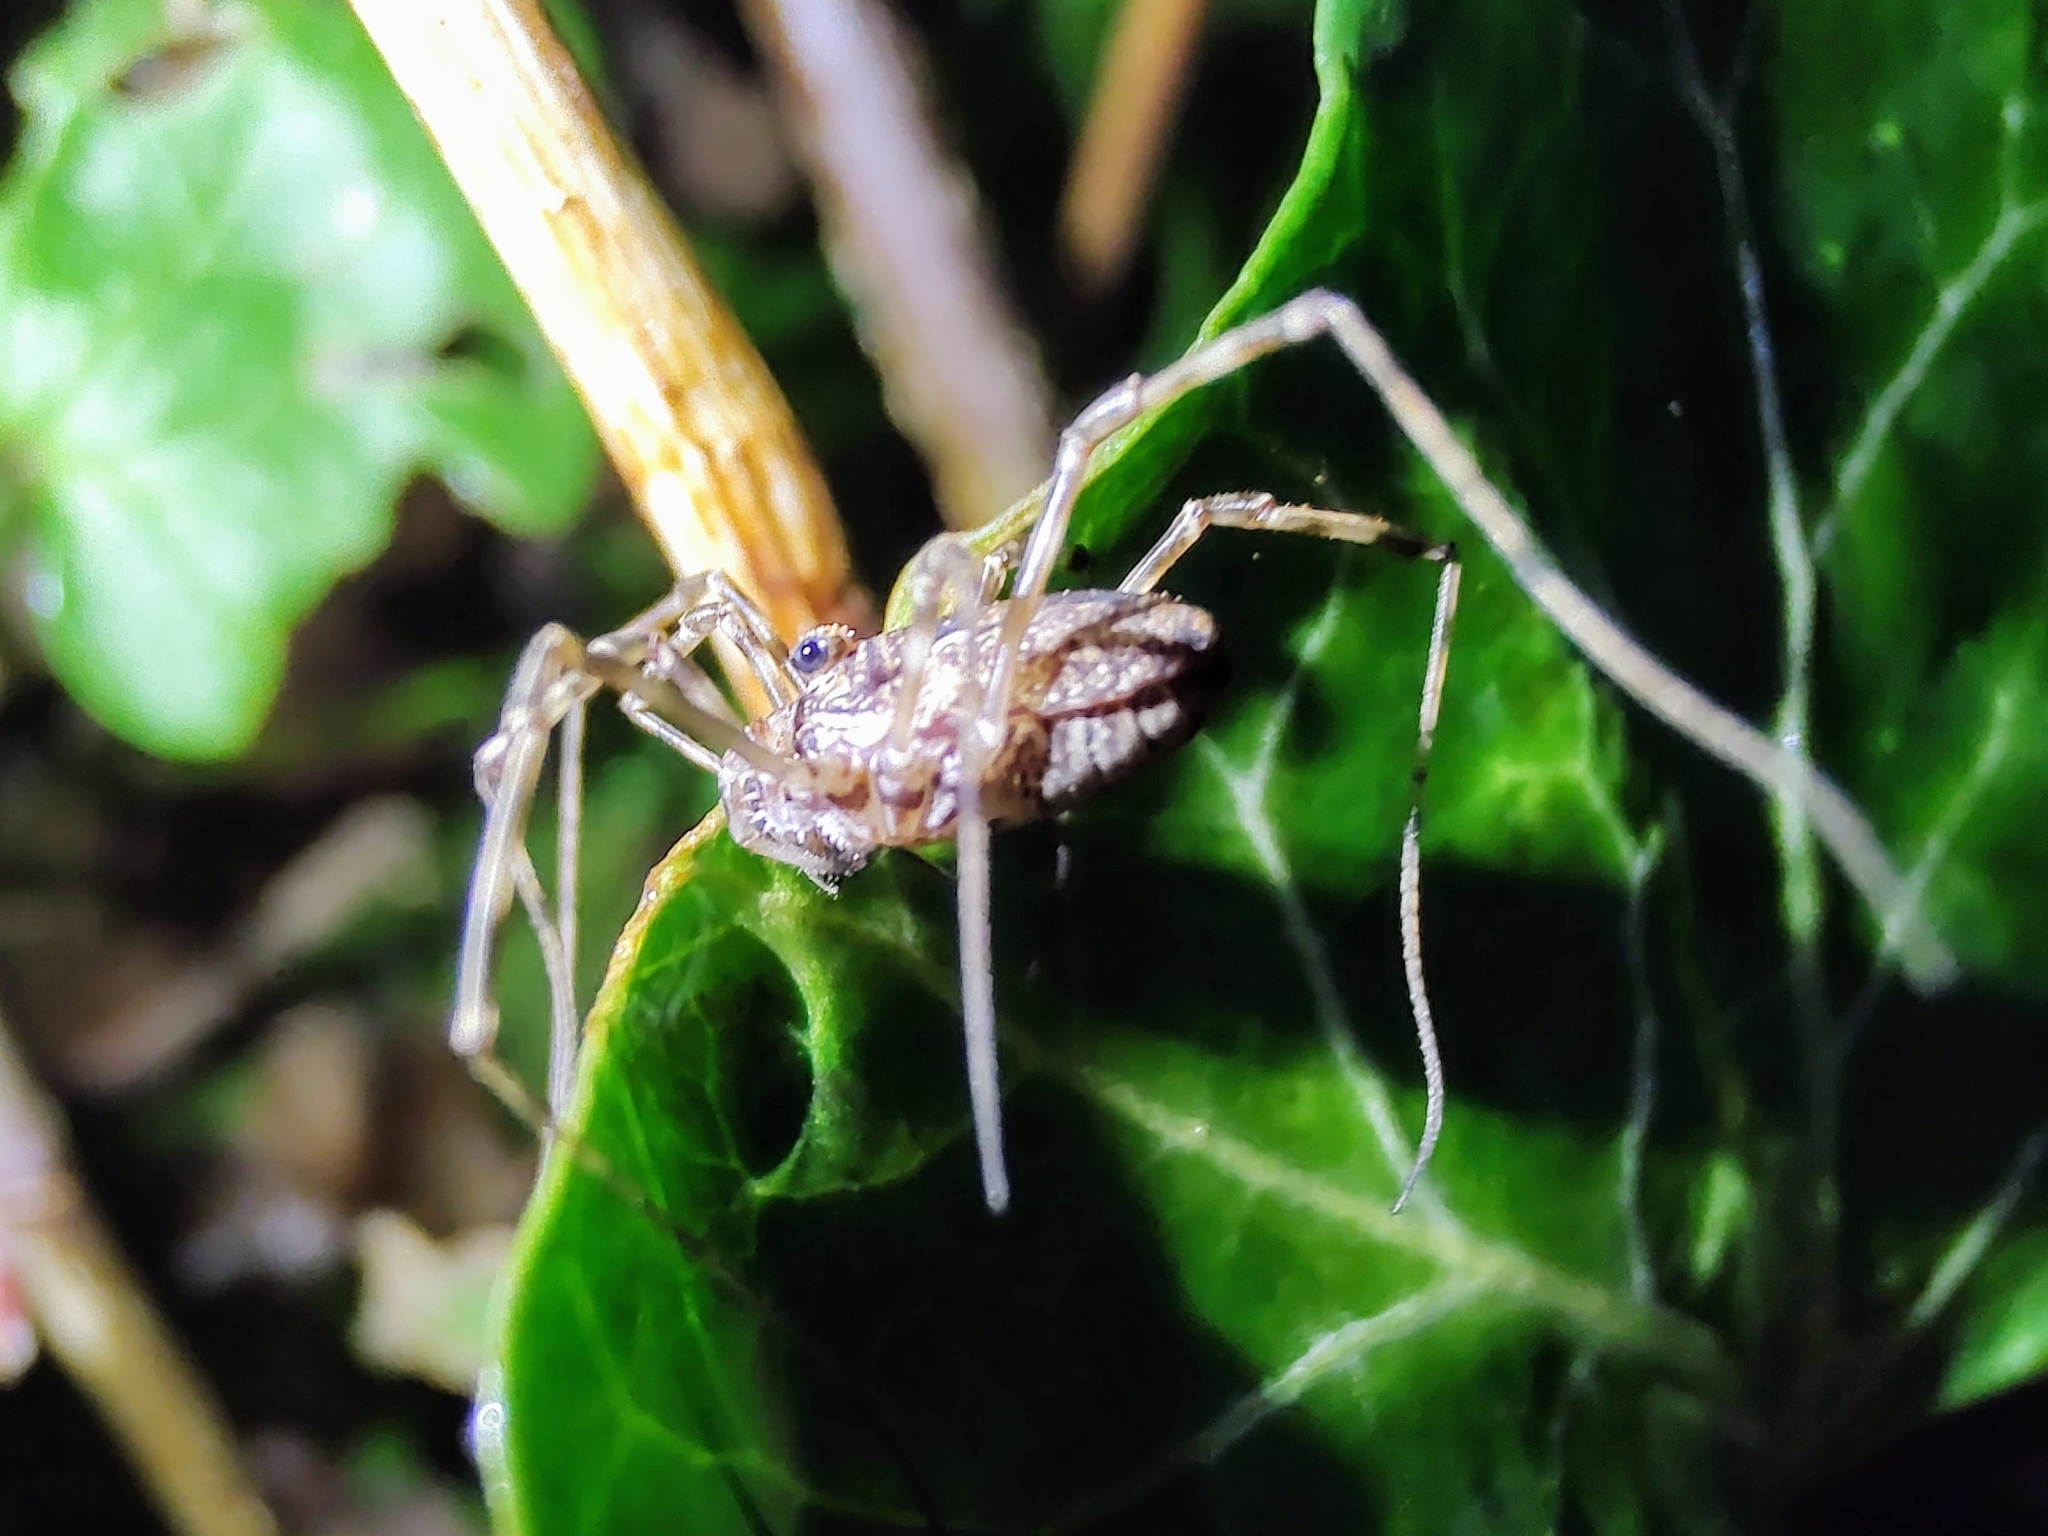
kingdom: Animalia
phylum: Arthropoda
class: Arachnida
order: Opiliones
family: Phalangiidae
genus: Platybunus
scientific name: Platybunus pinetorum
